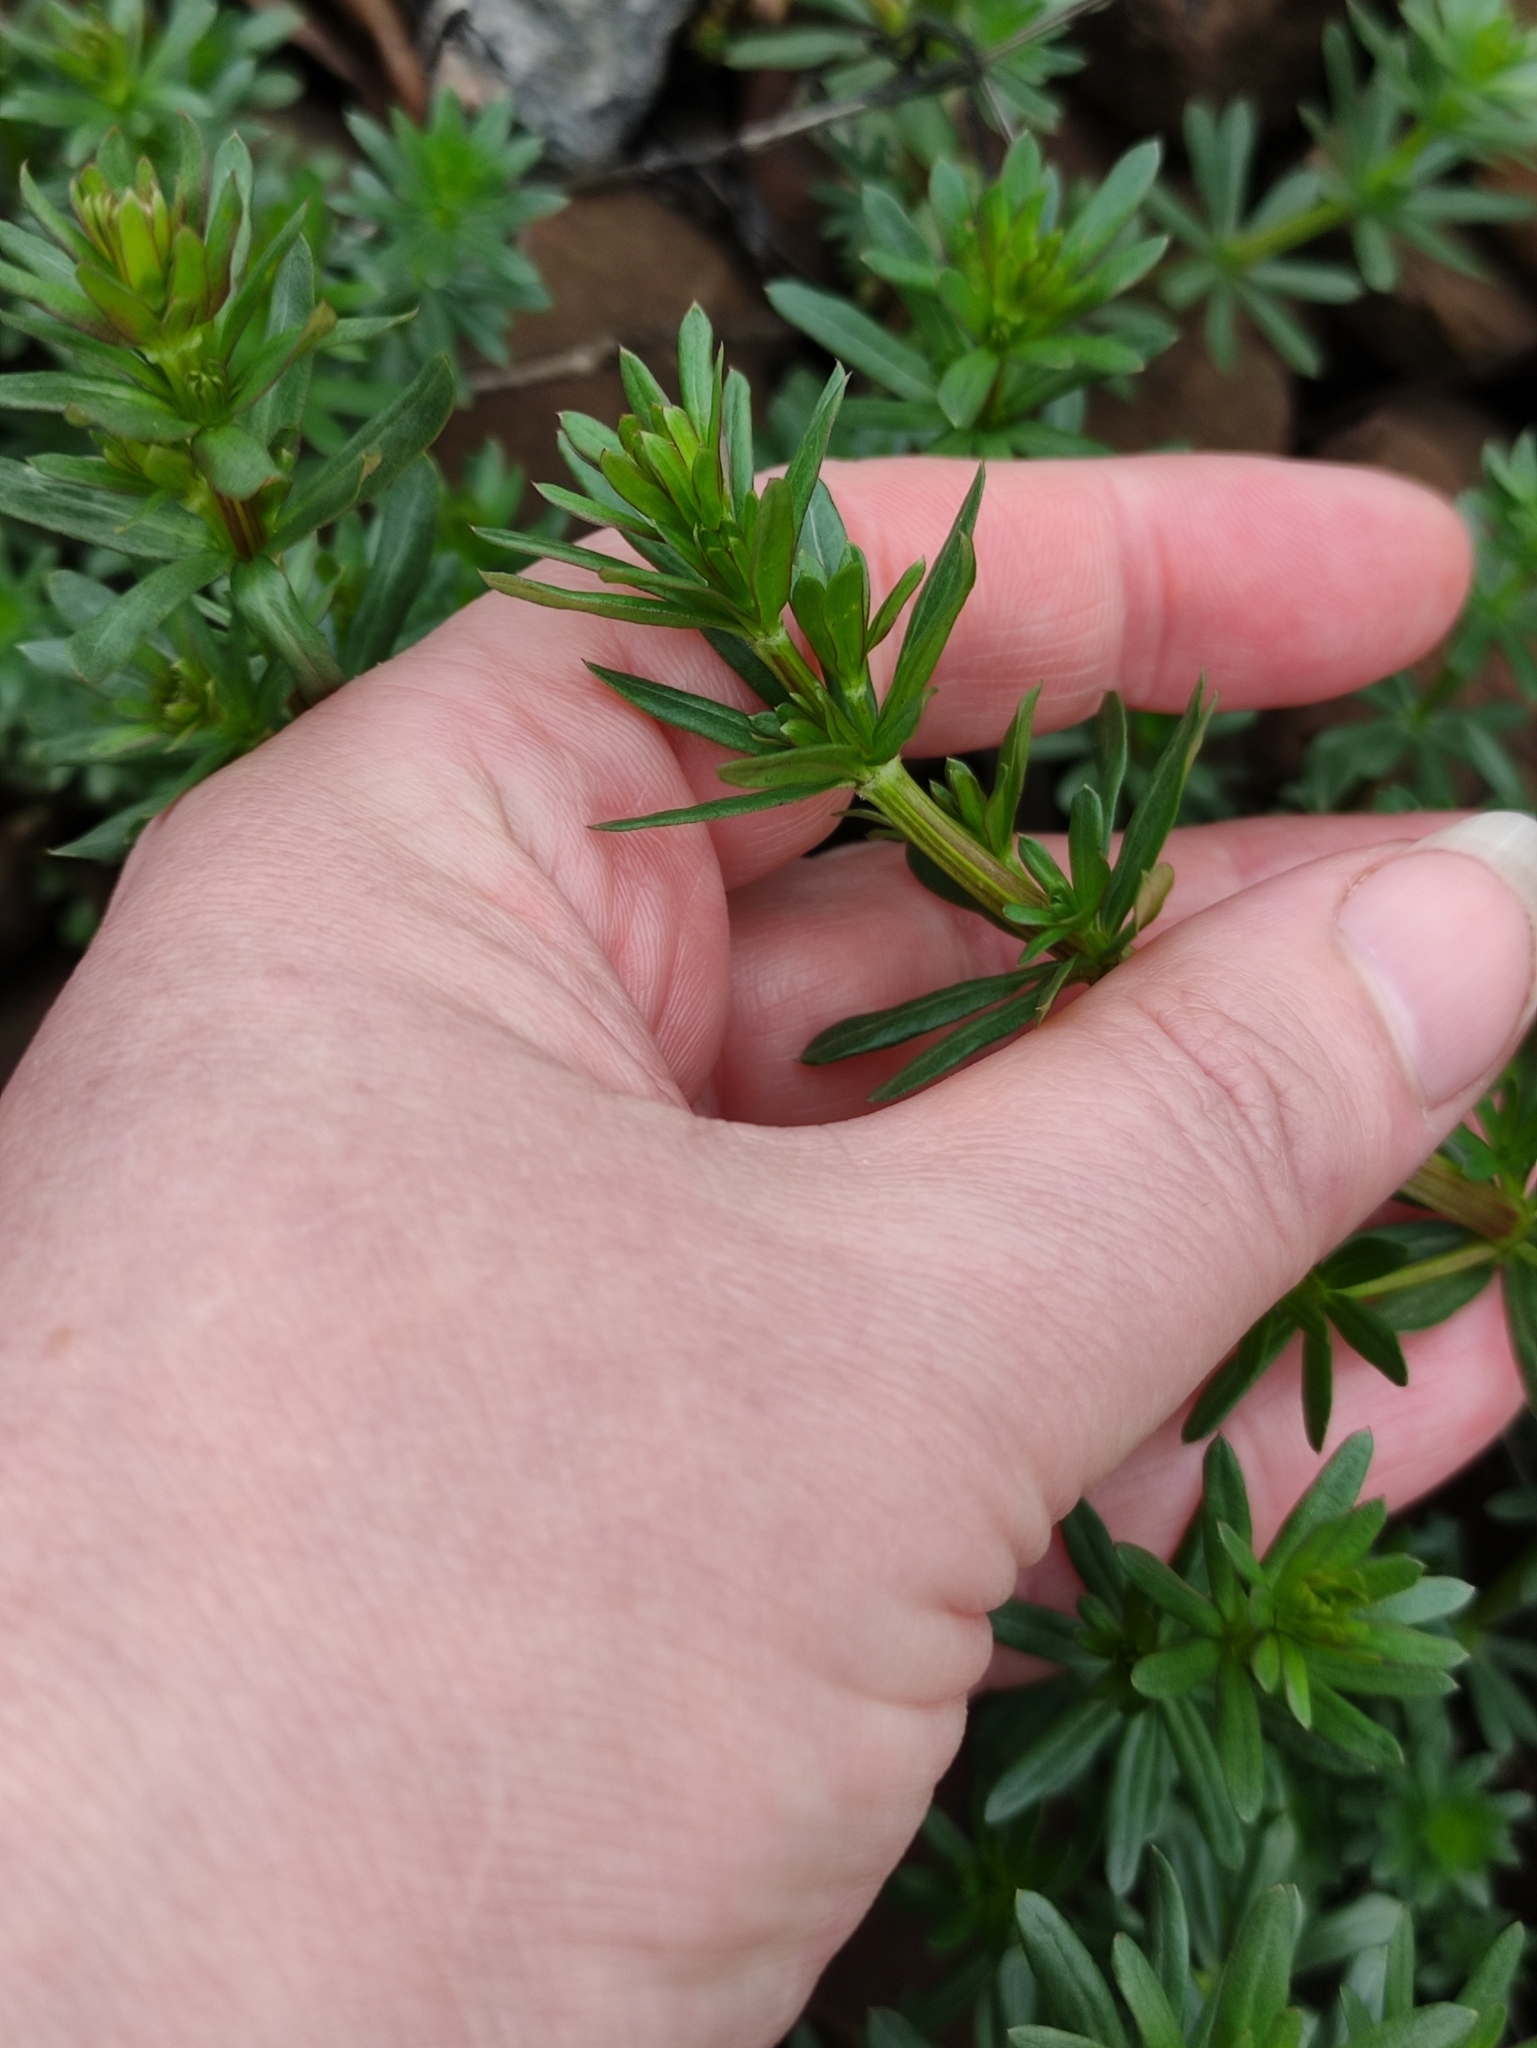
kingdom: Plantae
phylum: Tracheophyta
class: Magnoliopsida
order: Gentianales
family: Rubiaceae
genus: Galium
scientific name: Galium mollugo
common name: Hedge bedstraw
